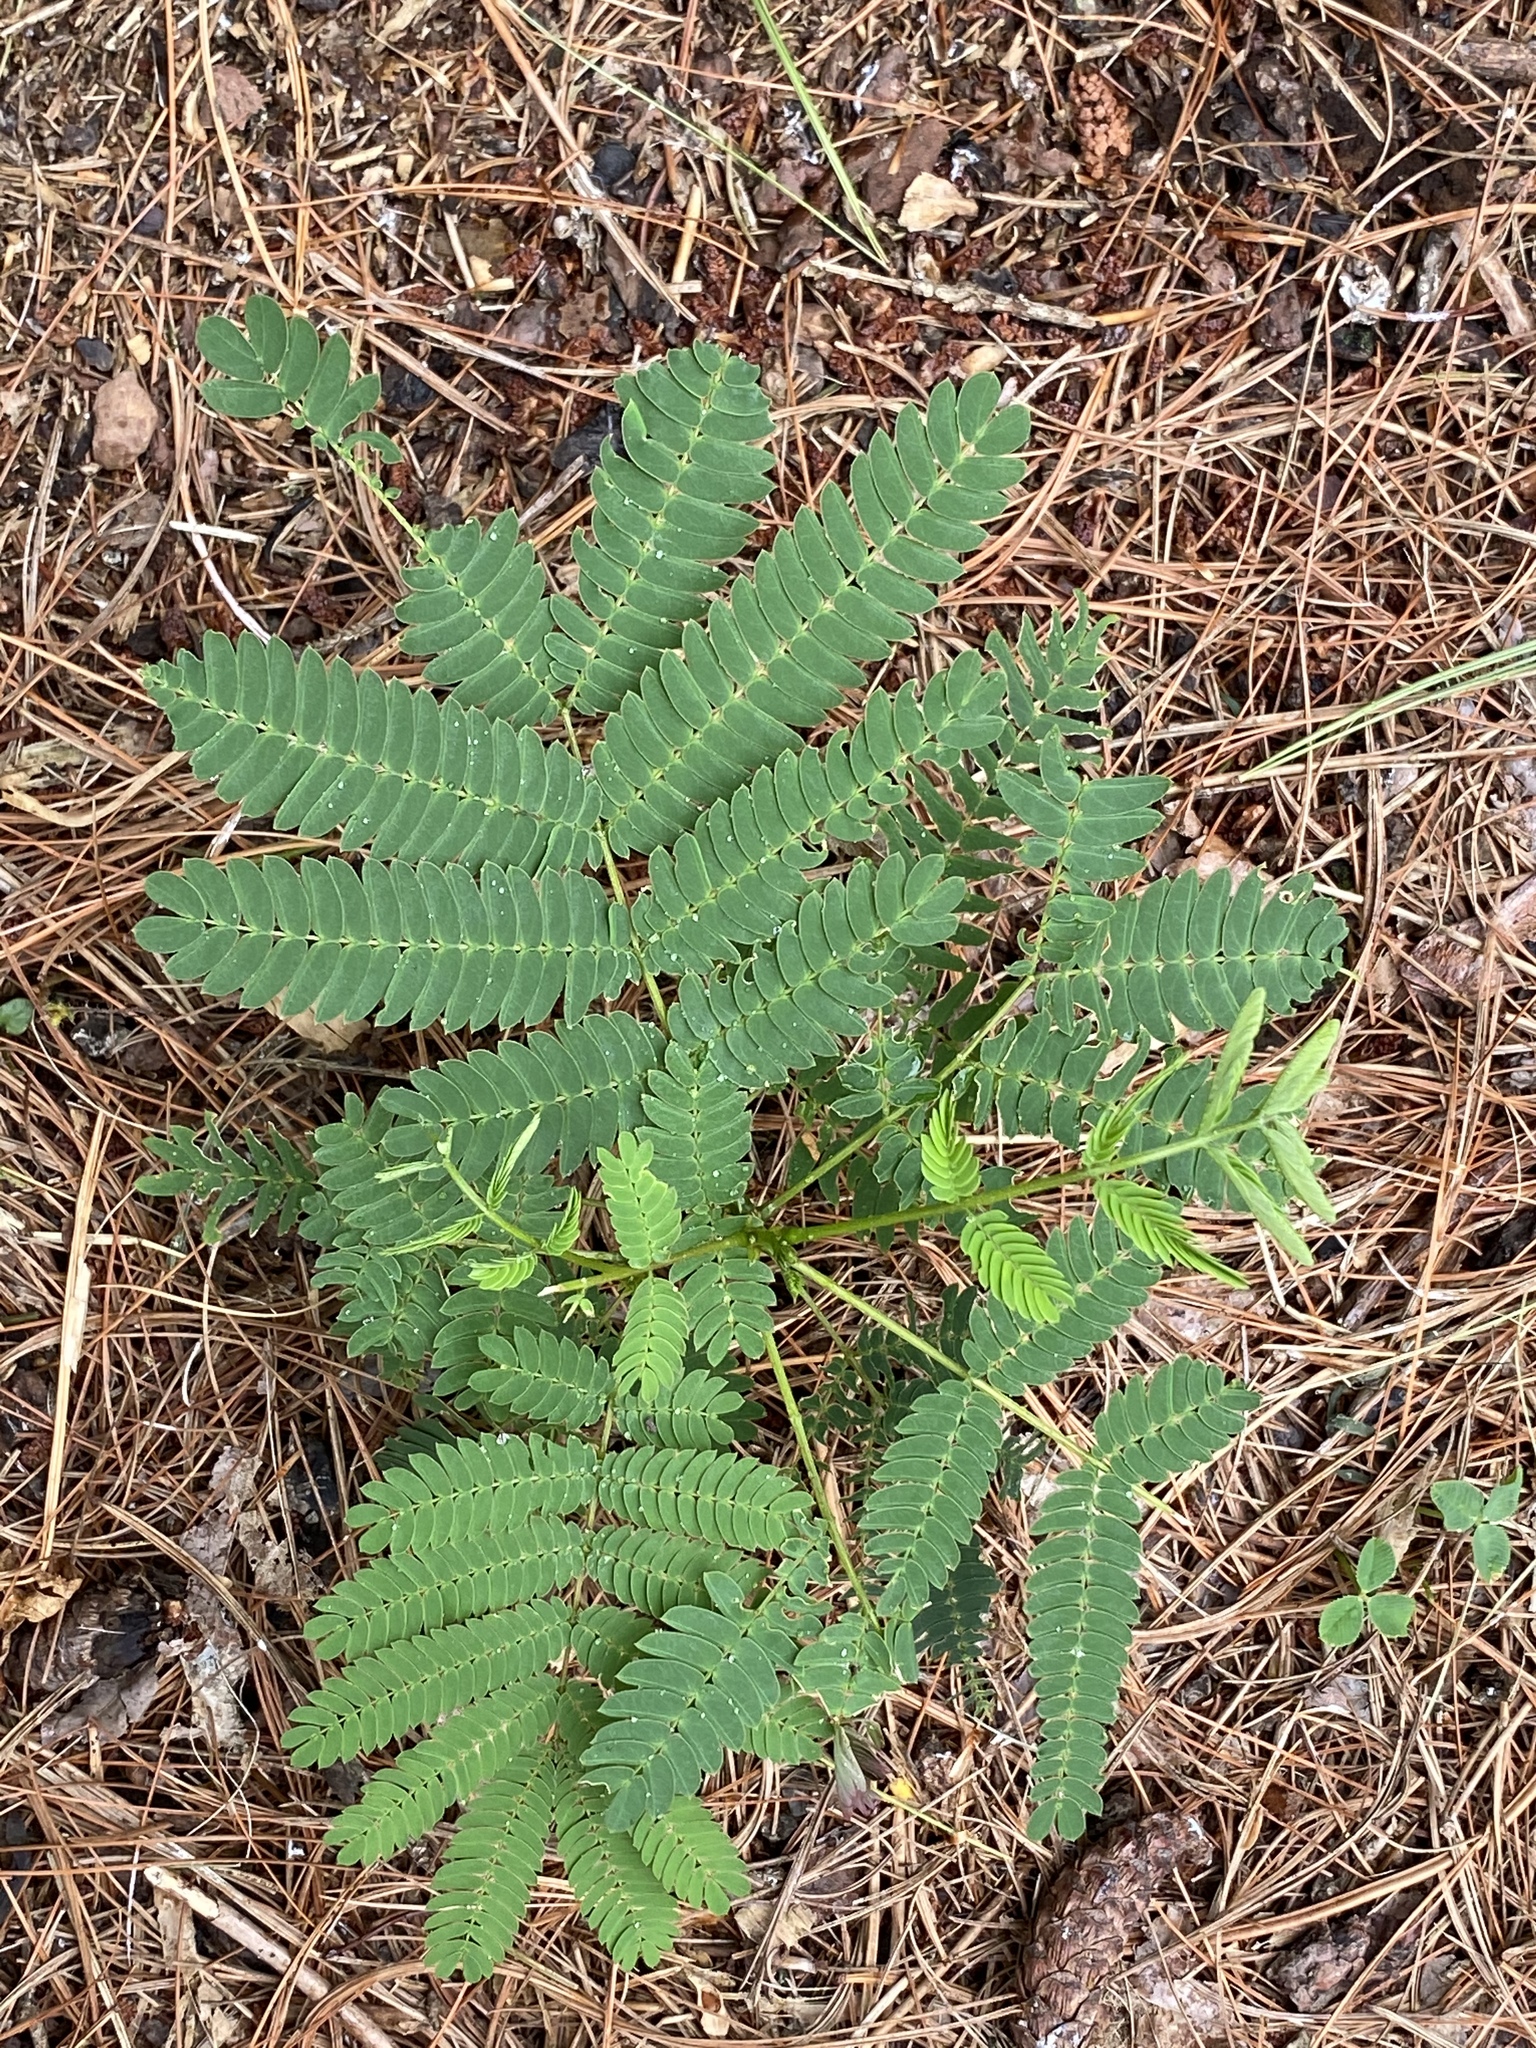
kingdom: Plantae
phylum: Tracheophyta
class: Magnoliopsida
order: Fabales
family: Fabaceae
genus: Albizia
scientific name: Albizia julibrissin
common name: Silktree
